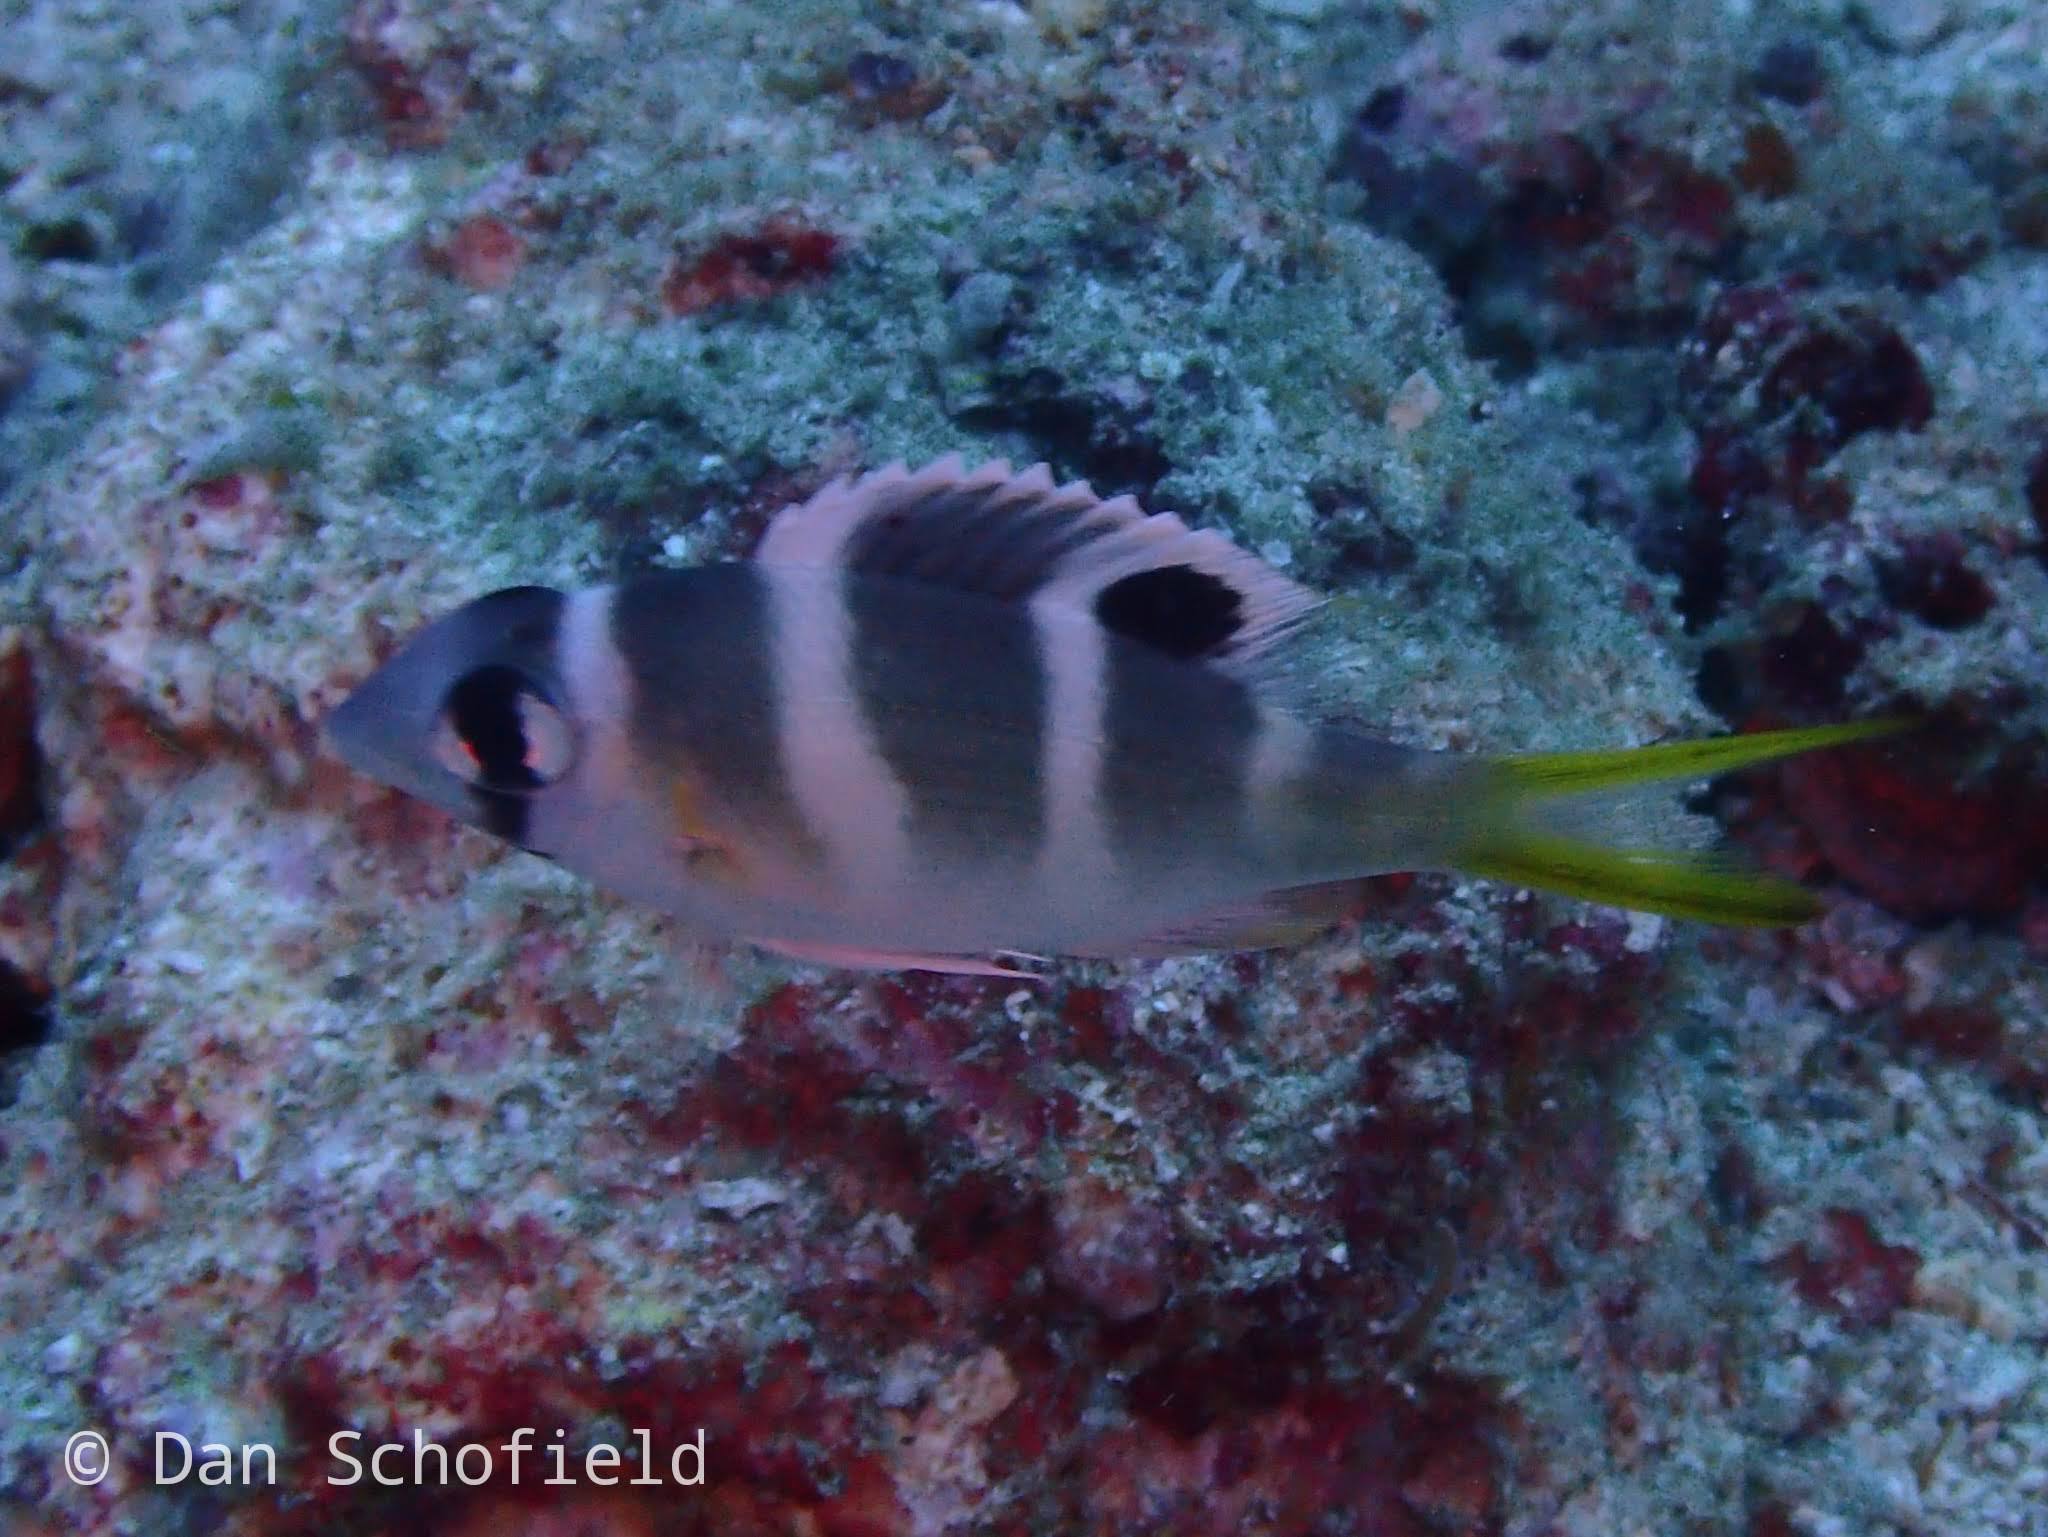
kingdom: Animalia
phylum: Chordata
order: Perciformes
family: Lethrinidae
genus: Monotaxis
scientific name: Monotaxis grandoculis
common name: Bigeye emperor
